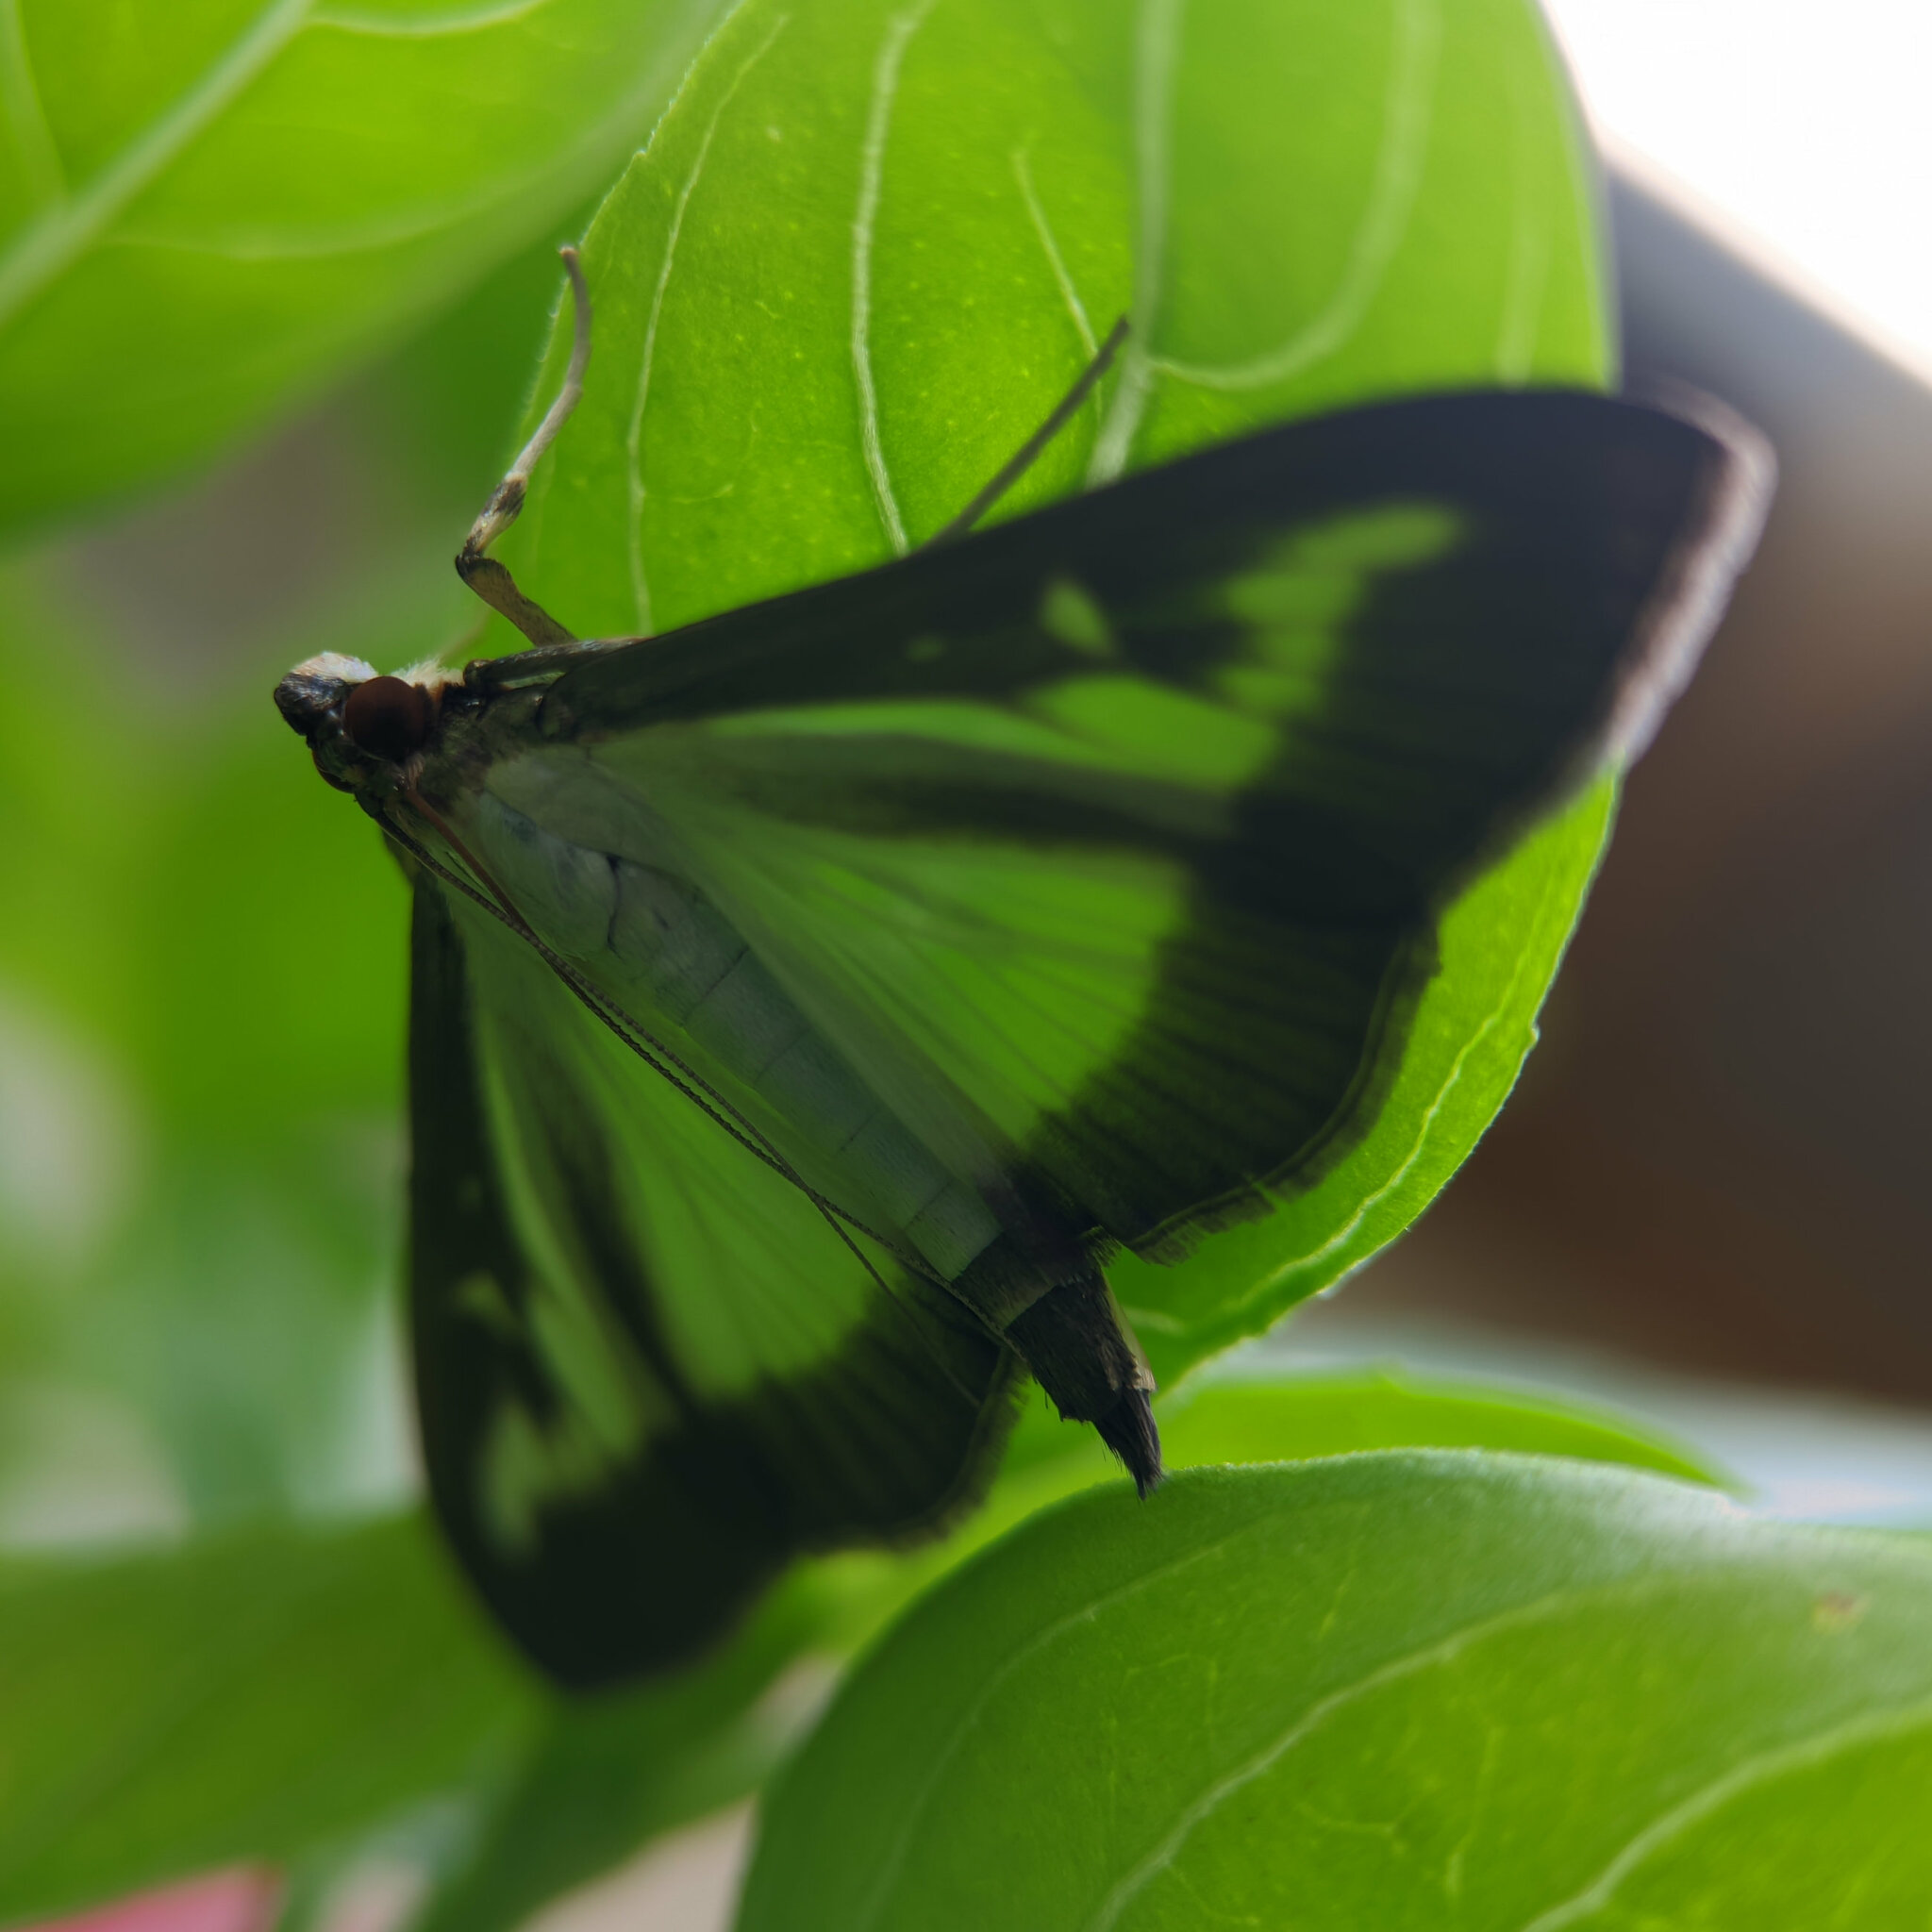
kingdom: Animalia
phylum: Arthropoda
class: Insecta
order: Lepidoptera
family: Crambidae
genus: Cydalima
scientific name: Cydalima perspectalis
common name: Box tree moth
